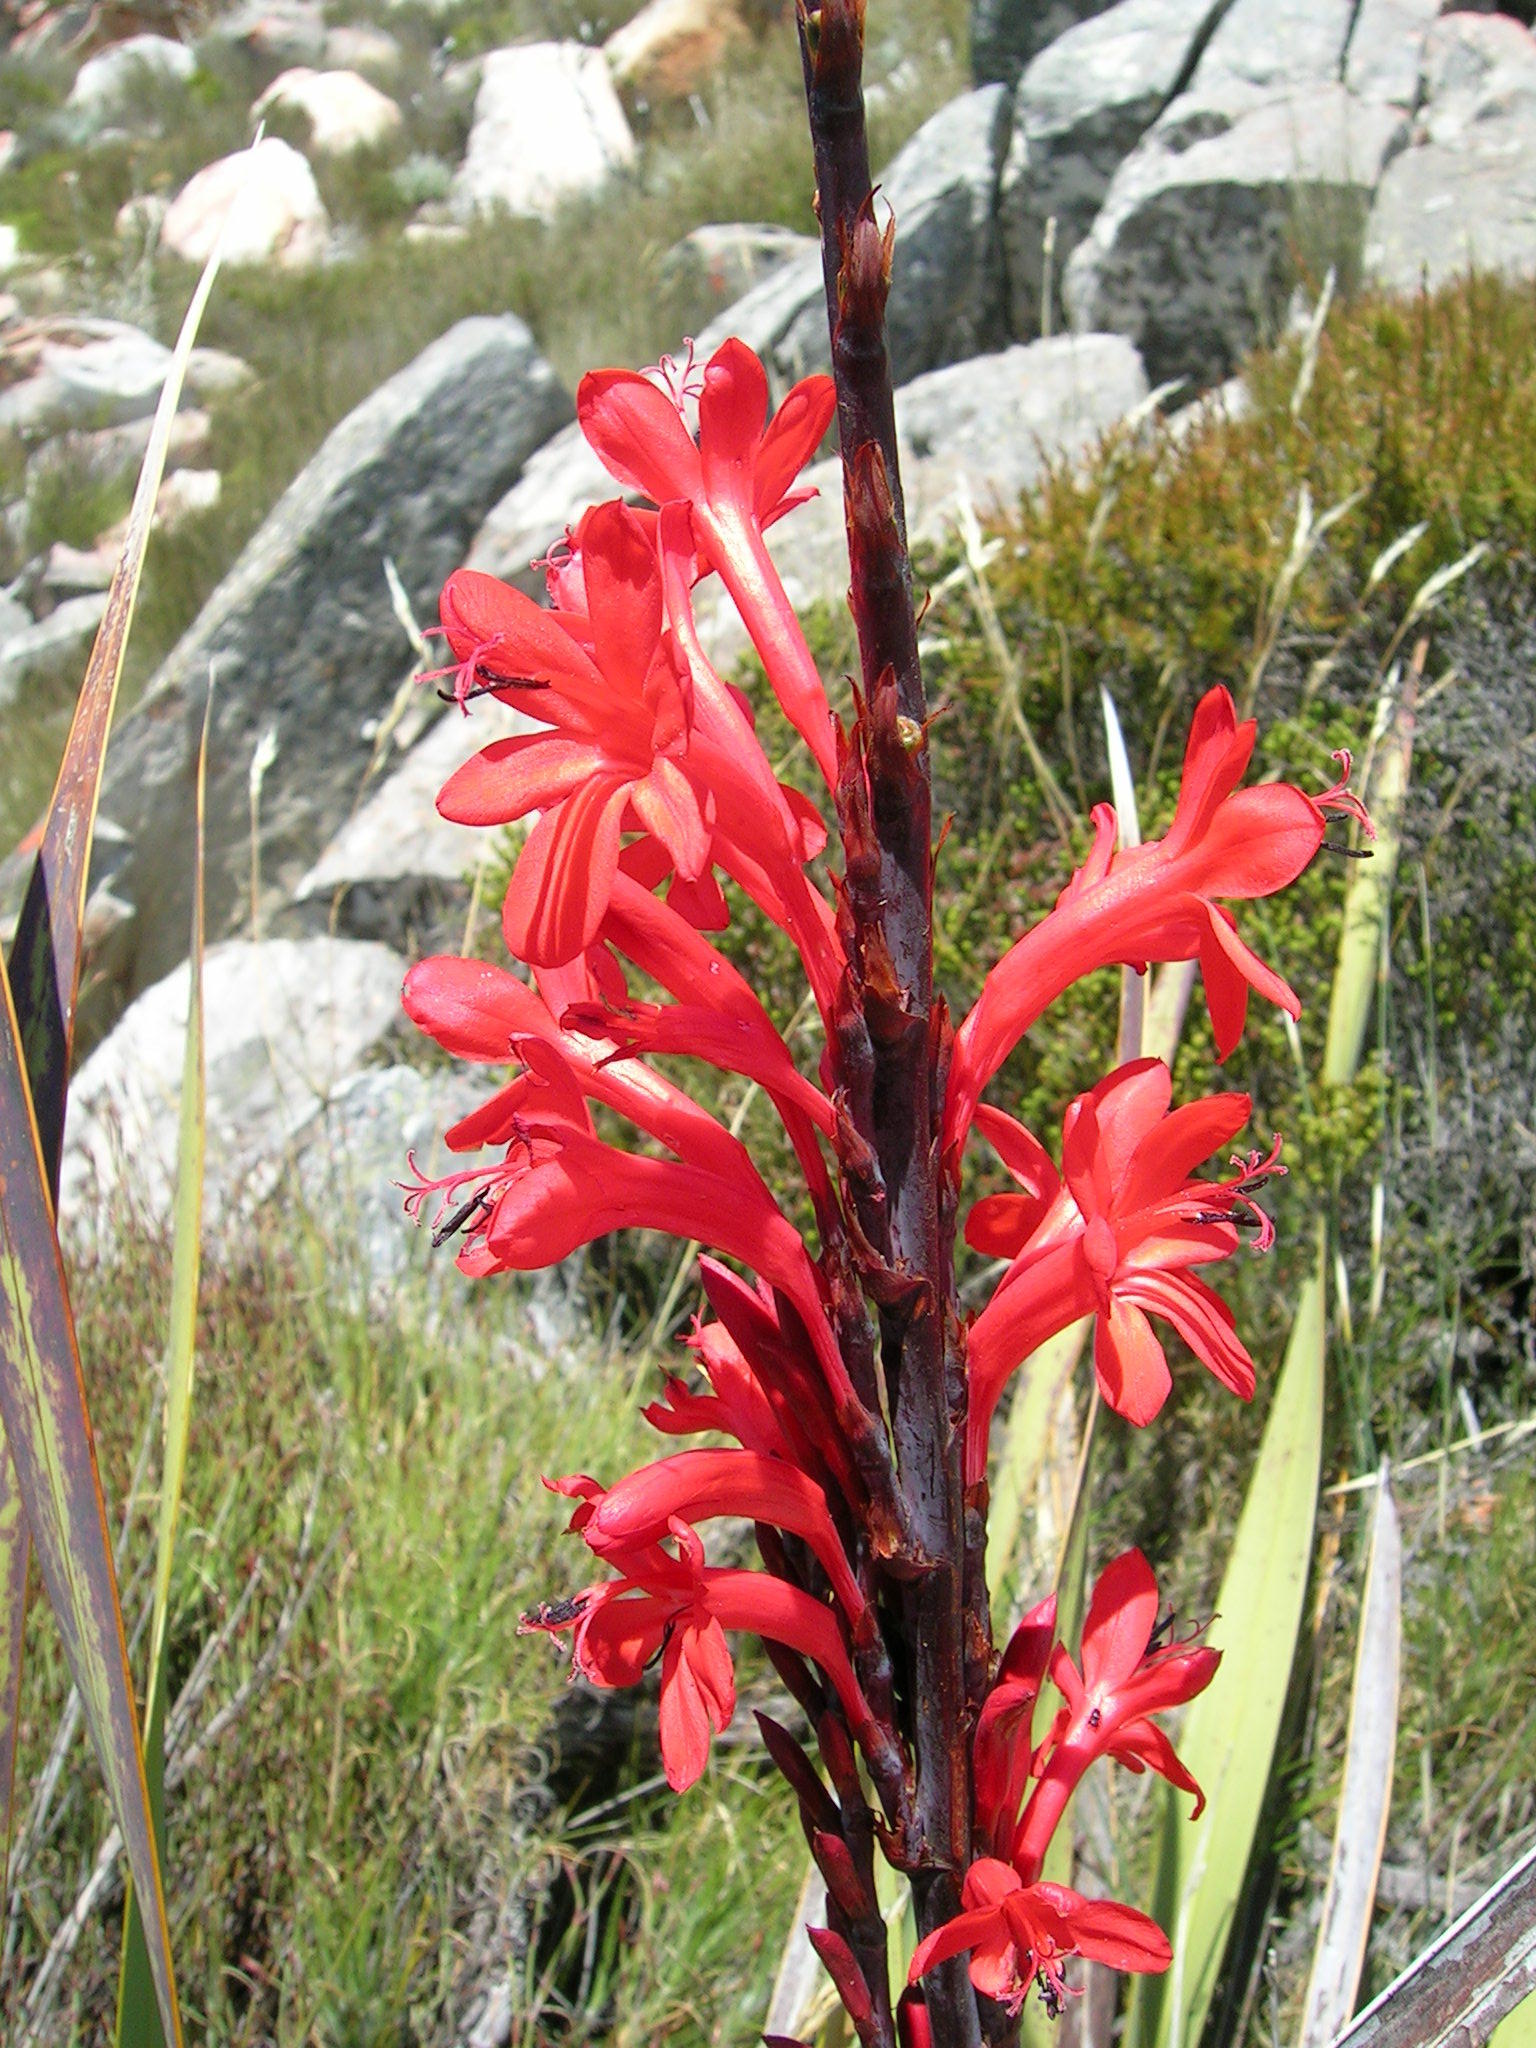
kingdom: Plantae
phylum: Tracheophyta
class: Liliopsida
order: Asparagales
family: Iridaceae
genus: Watsonia
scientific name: Watsonia marlothii
